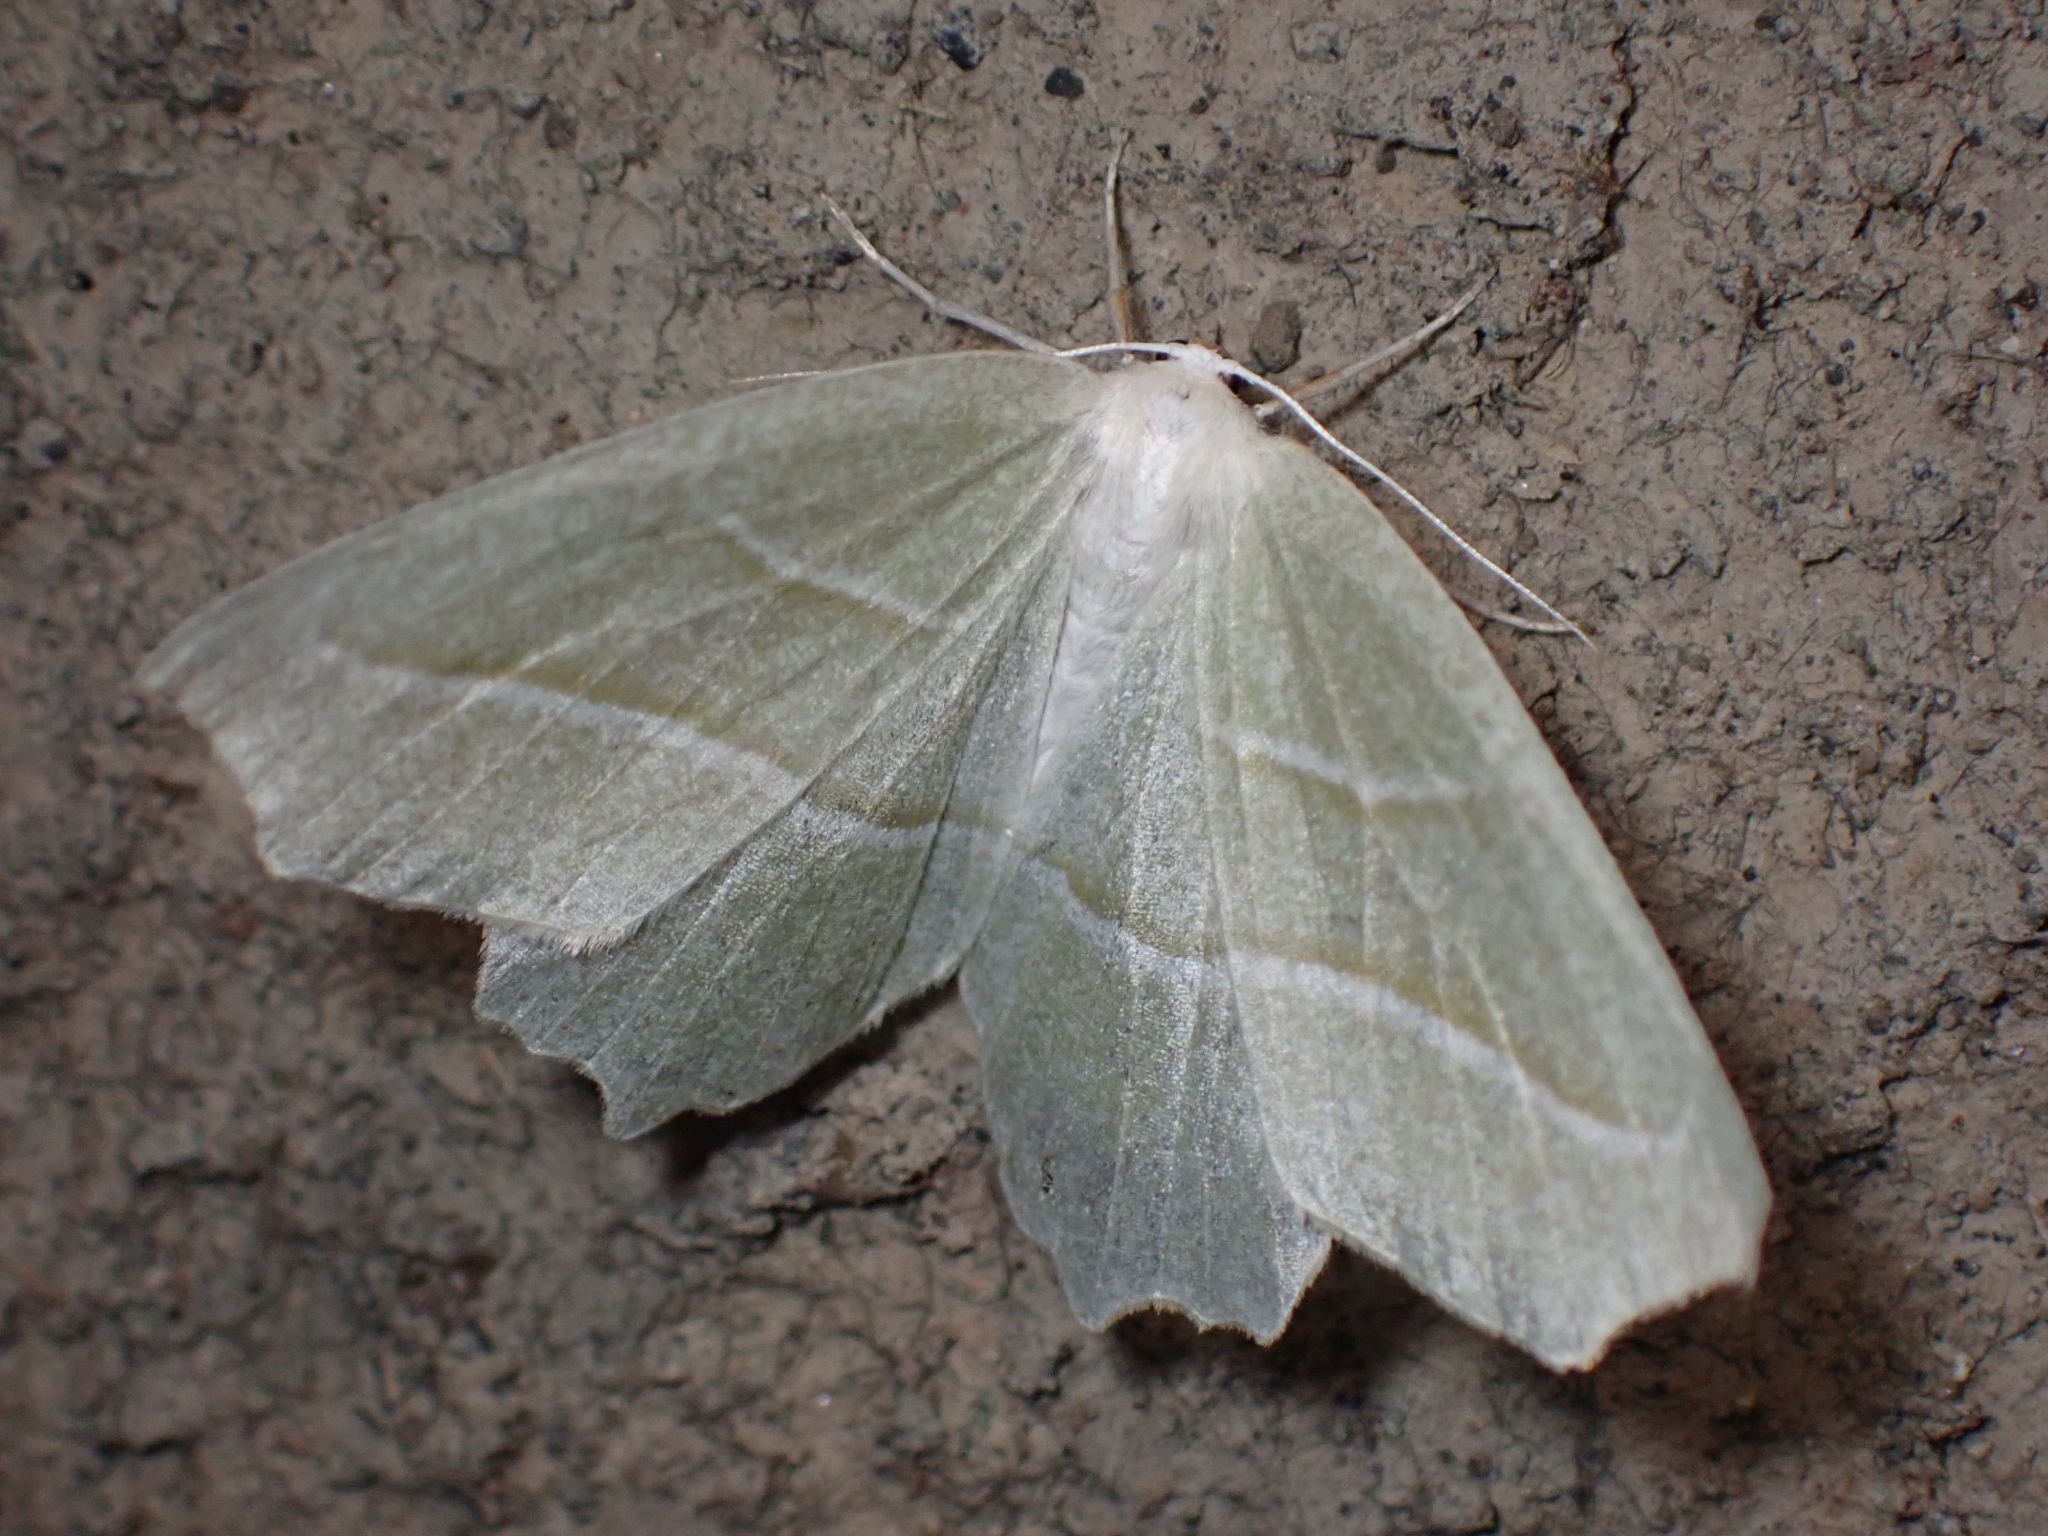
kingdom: Animalia
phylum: Arthropoda
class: Insecta
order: Lepidoptera
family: Geometridae
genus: Campaea
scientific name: Campaea perlata
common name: Fringed looper
